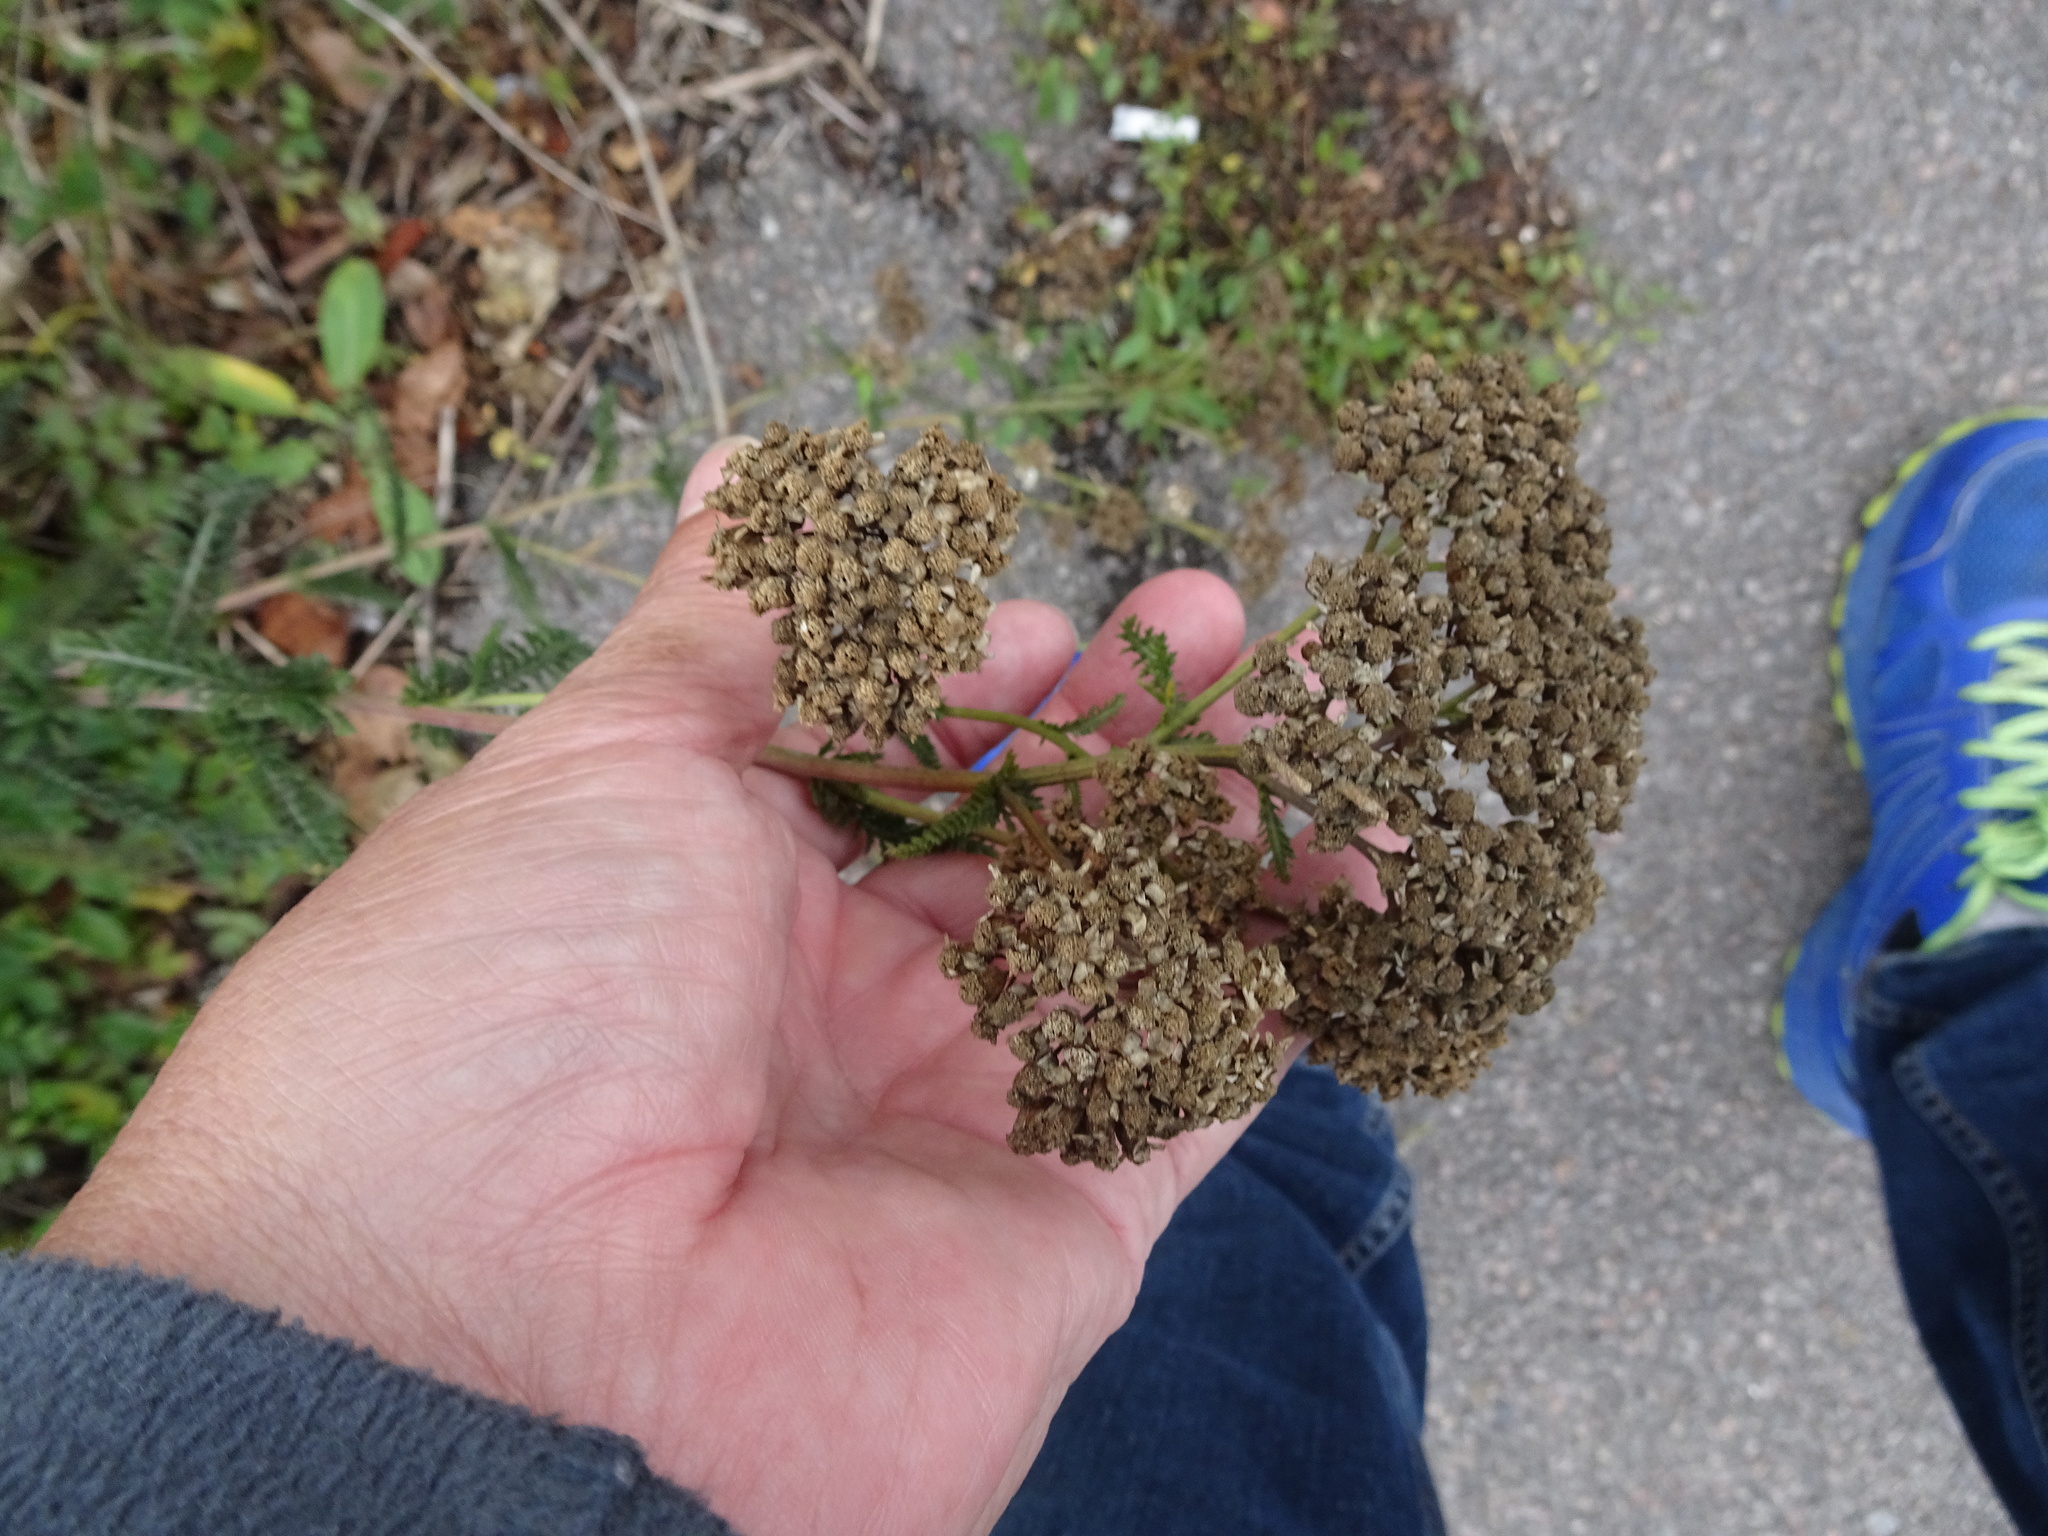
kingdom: Plantae
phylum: Tracheophyta
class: Magnoliopsida
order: Asterales
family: Asteraceae
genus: Achillea
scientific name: Achillea millefolium
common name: Yarrow
